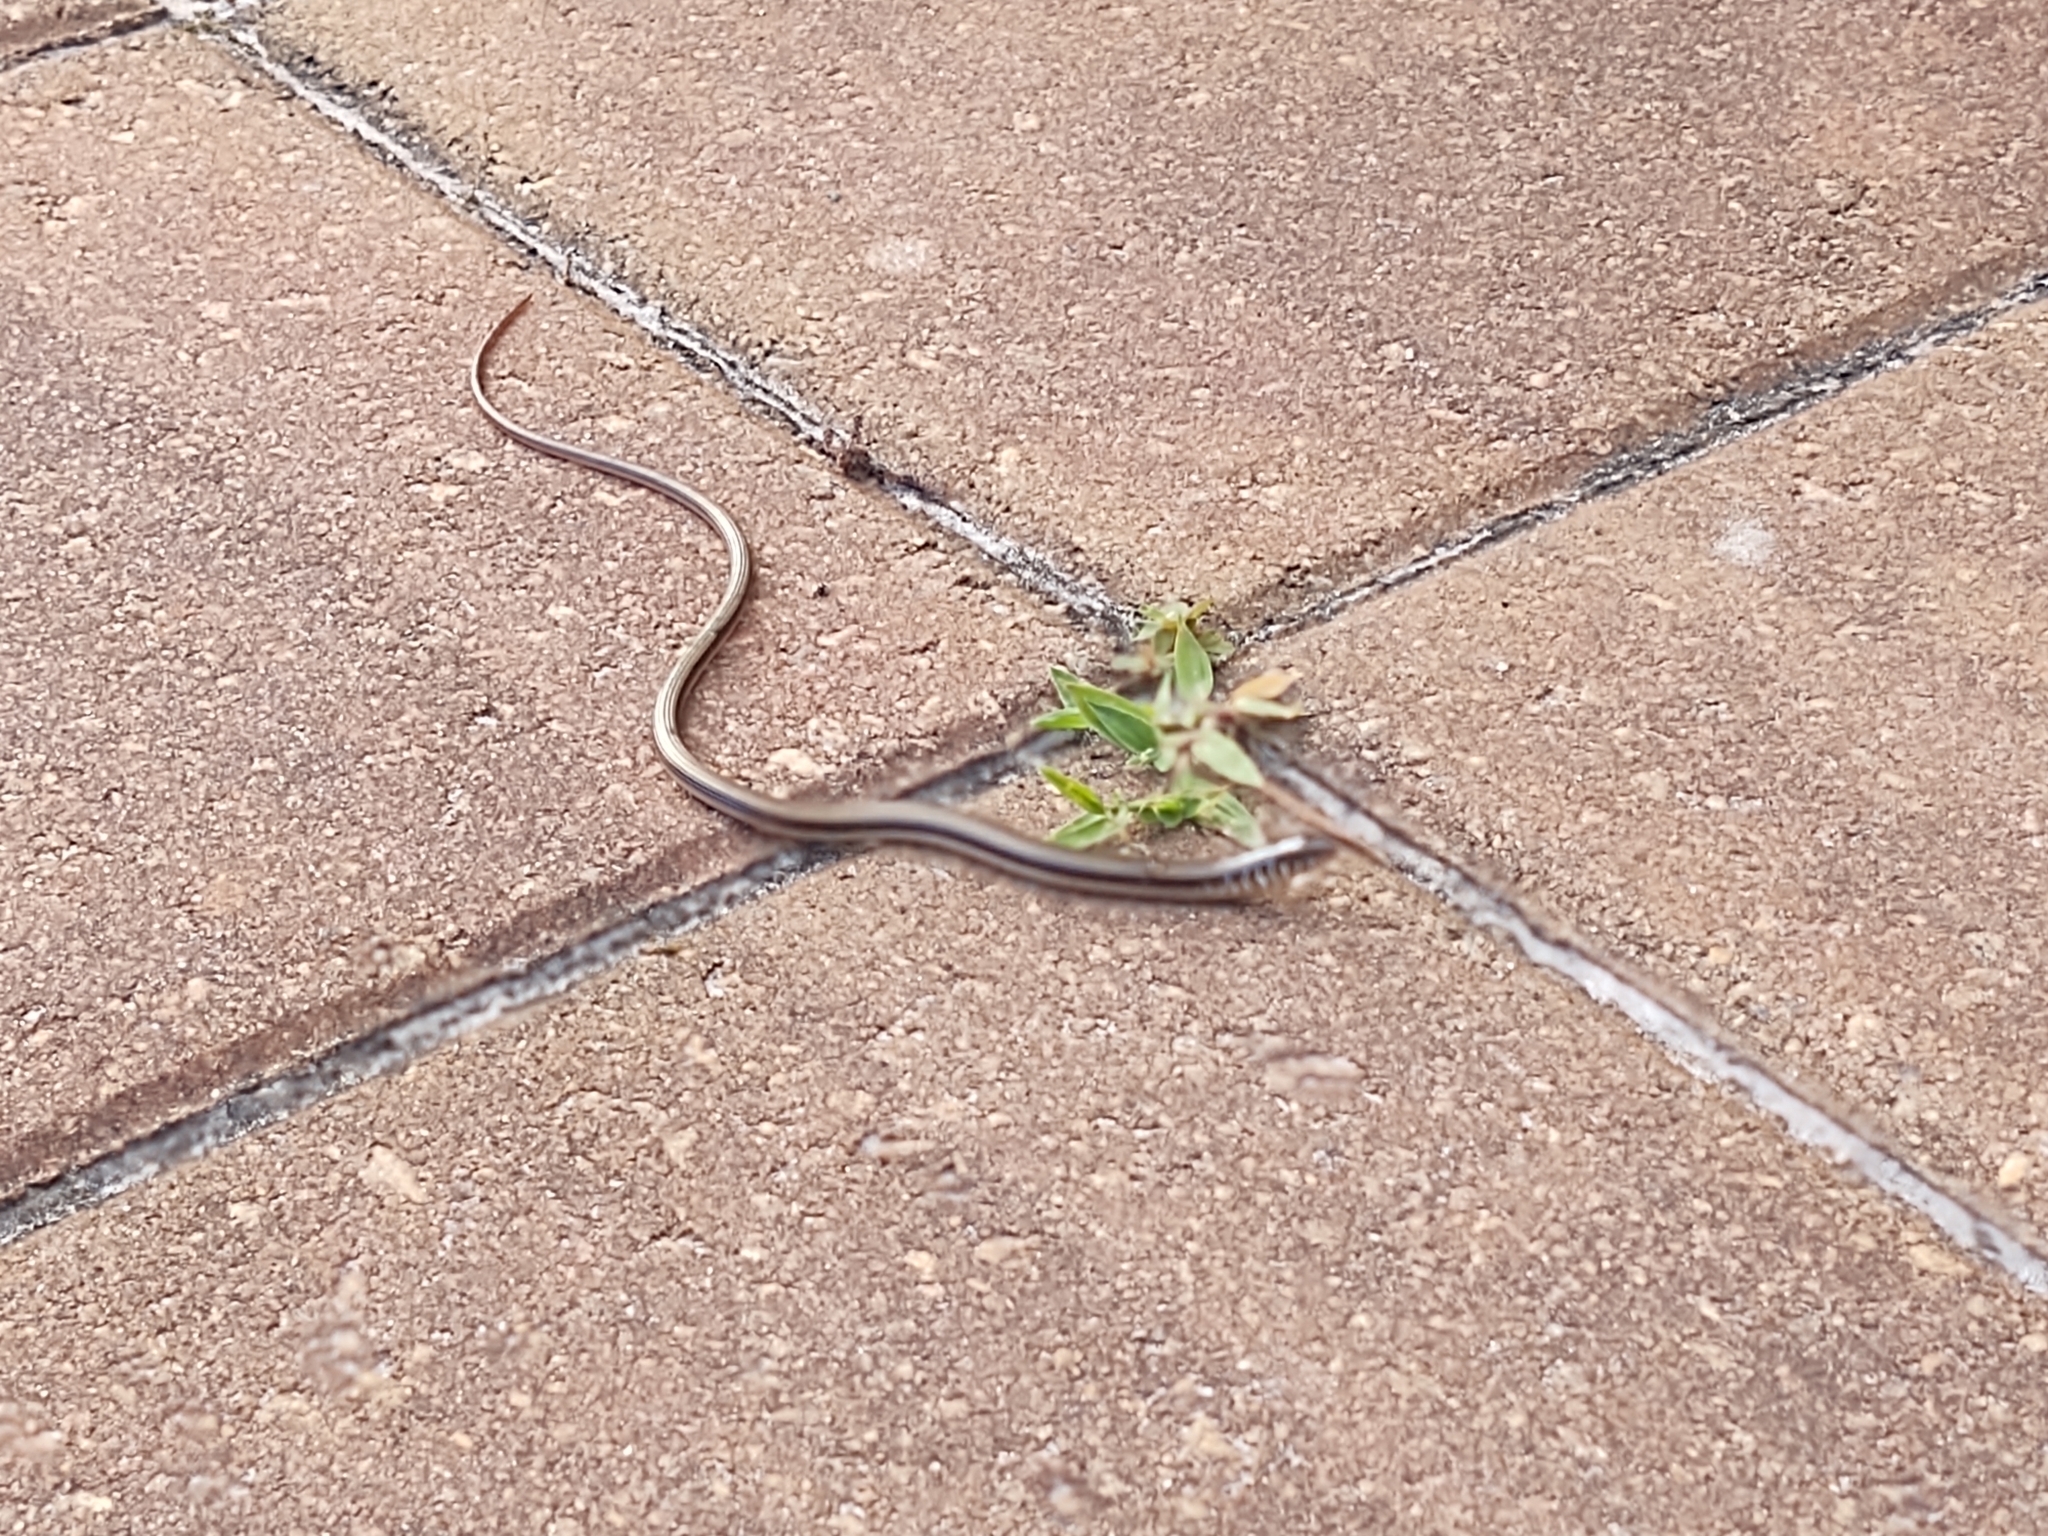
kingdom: Animalia
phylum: Chordata
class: Squamata
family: Anguidae
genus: Ophisaurus
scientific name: Ophisaurus ventralis
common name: Eastern glass lizard
